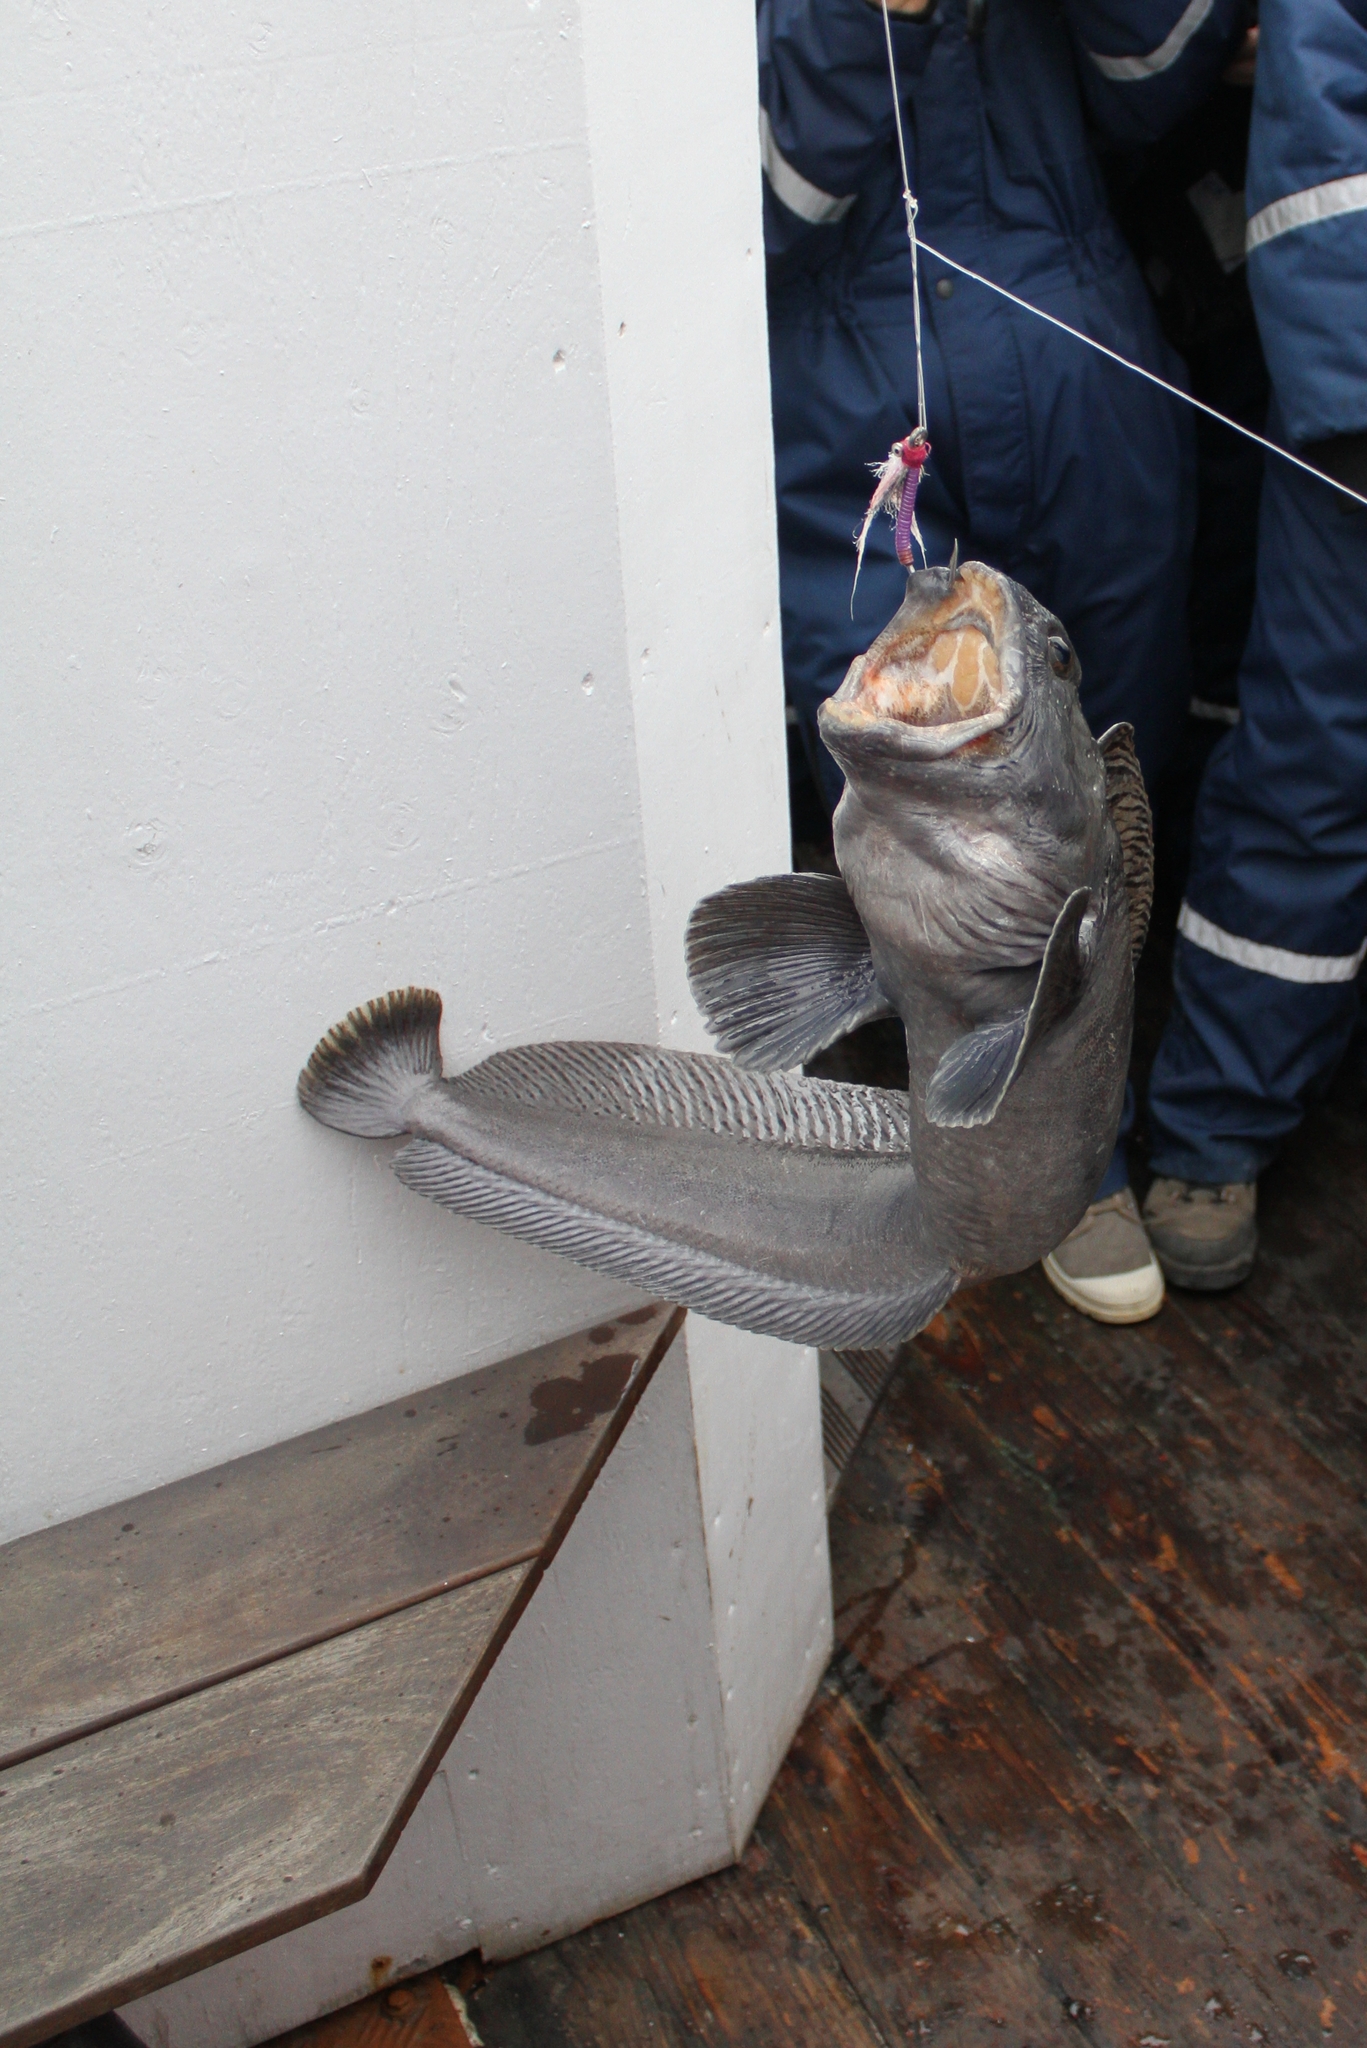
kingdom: Animalia
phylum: Chordata
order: Perciformes
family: Anarhichadidae
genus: Anarhichas
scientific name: Anarhichas lupus
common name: Wolf-fish
